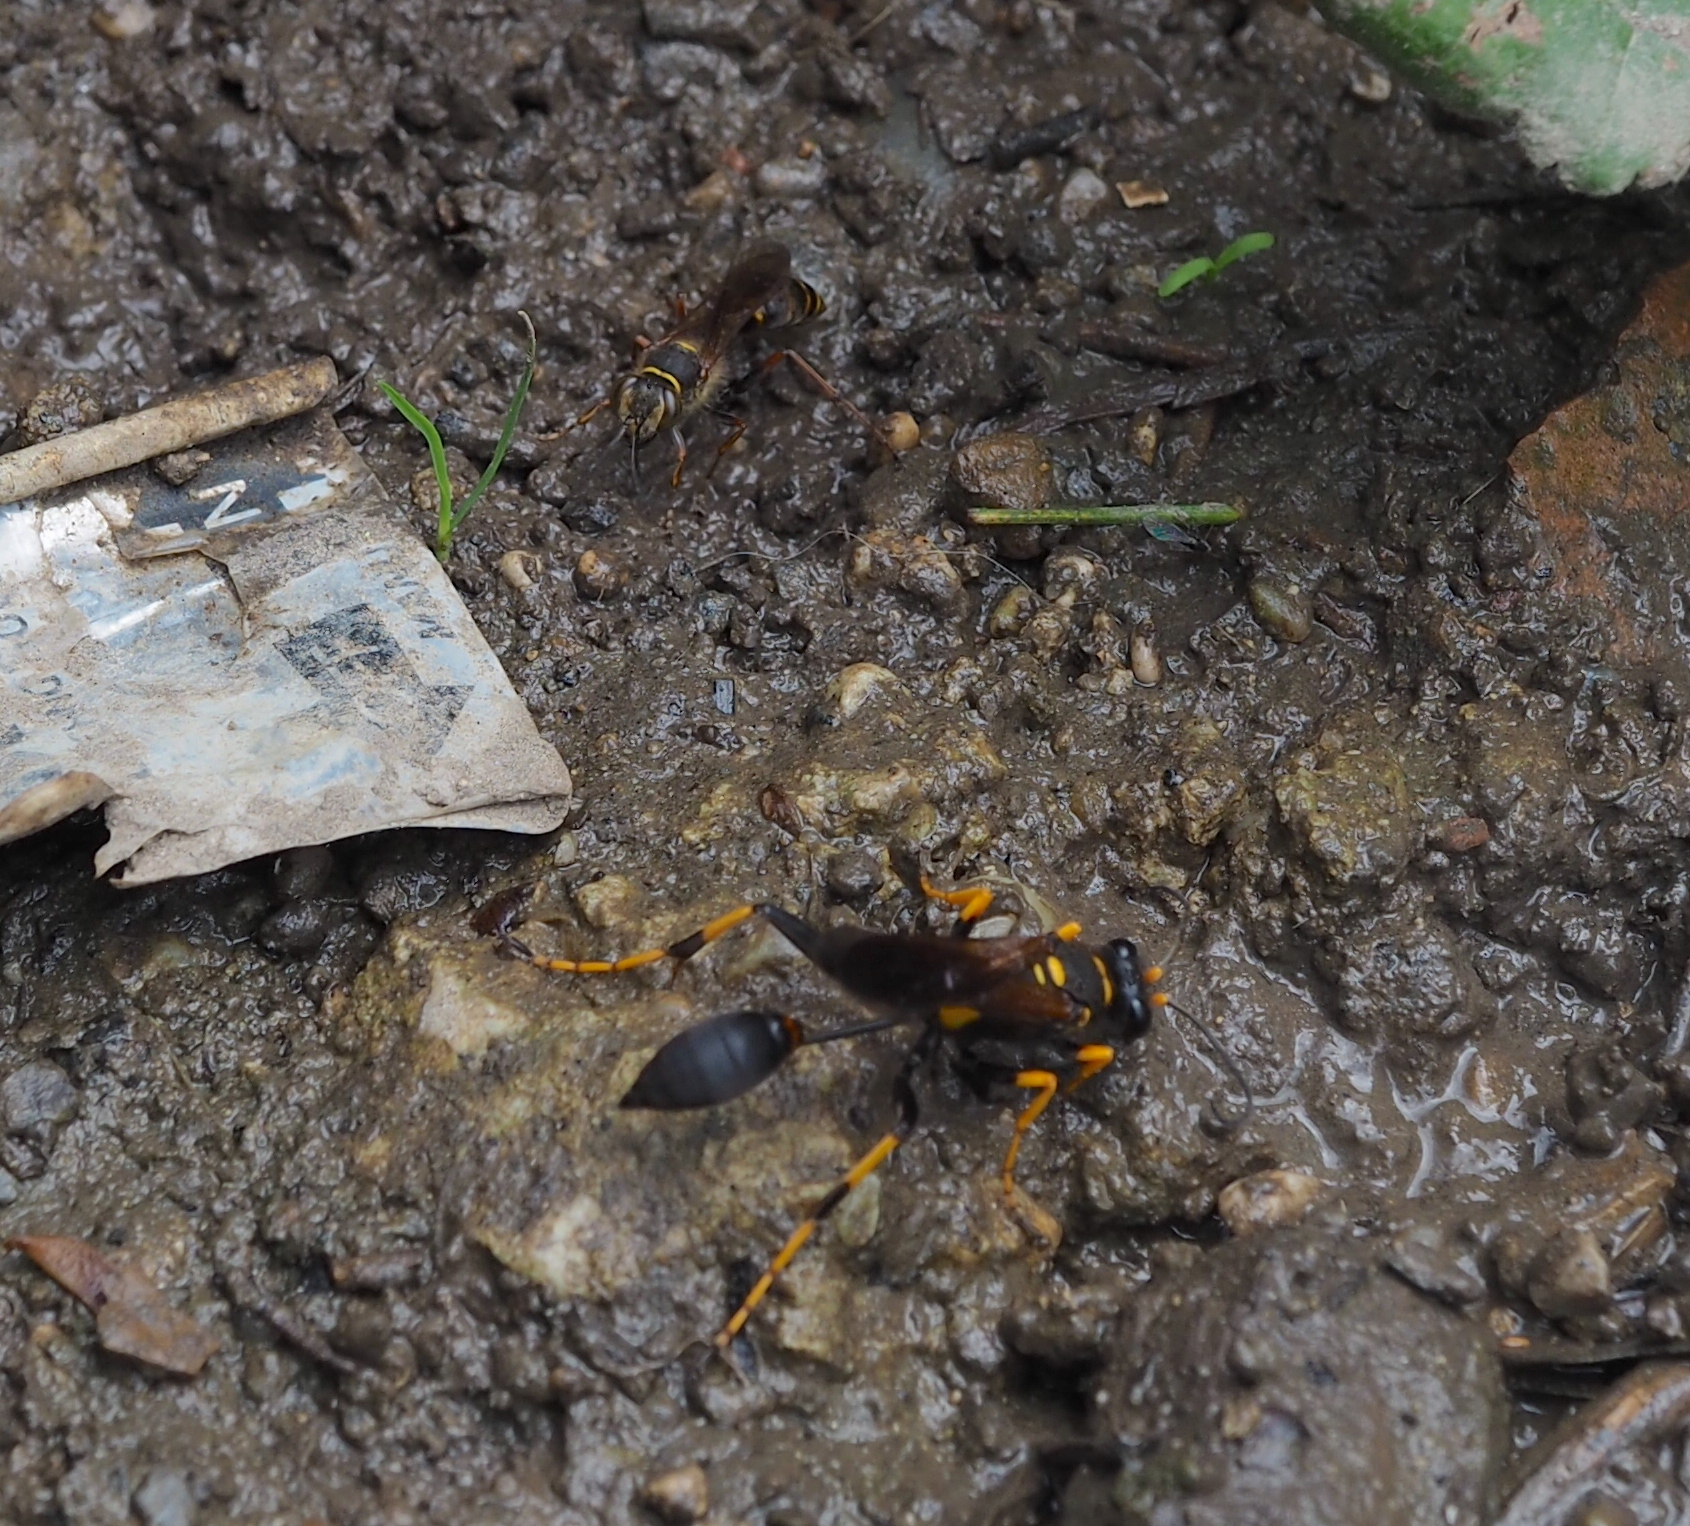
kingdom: Animalia
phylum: Arthropoda
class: Insecta
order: Hymenoptera
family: Sphecidae
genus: Sceliphron
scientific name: Sceliphron caementarium
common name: Mud dauber
